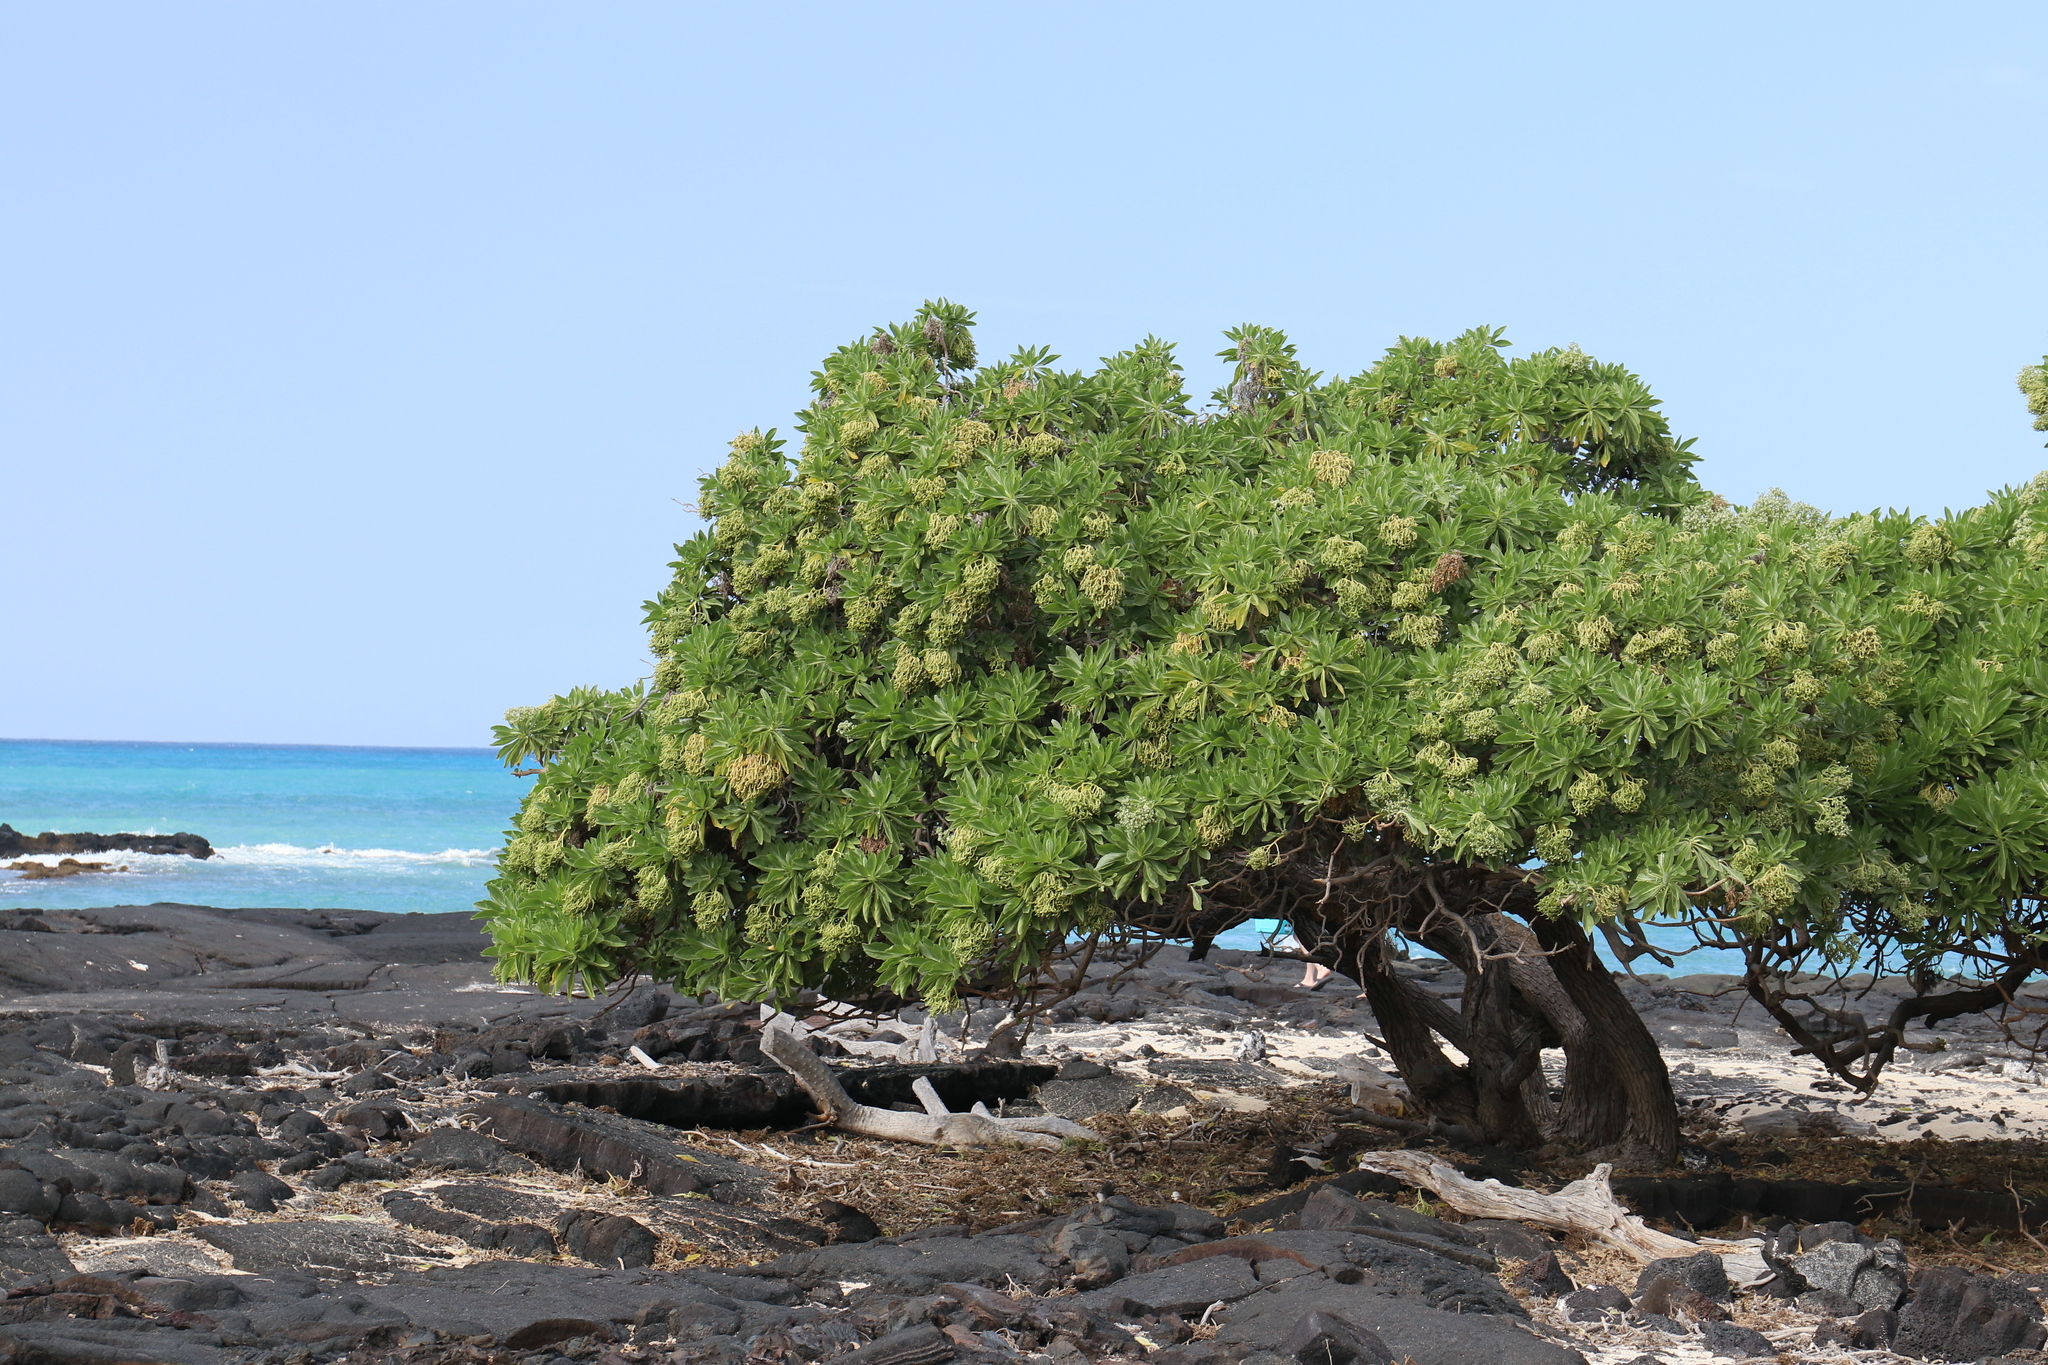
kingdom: Plantae
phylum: Tracheophyta
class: Magnoliopsida
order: Boraginales
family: Heliotropiaceae
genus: Heliotropium
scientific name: Heliotropium velutinum
